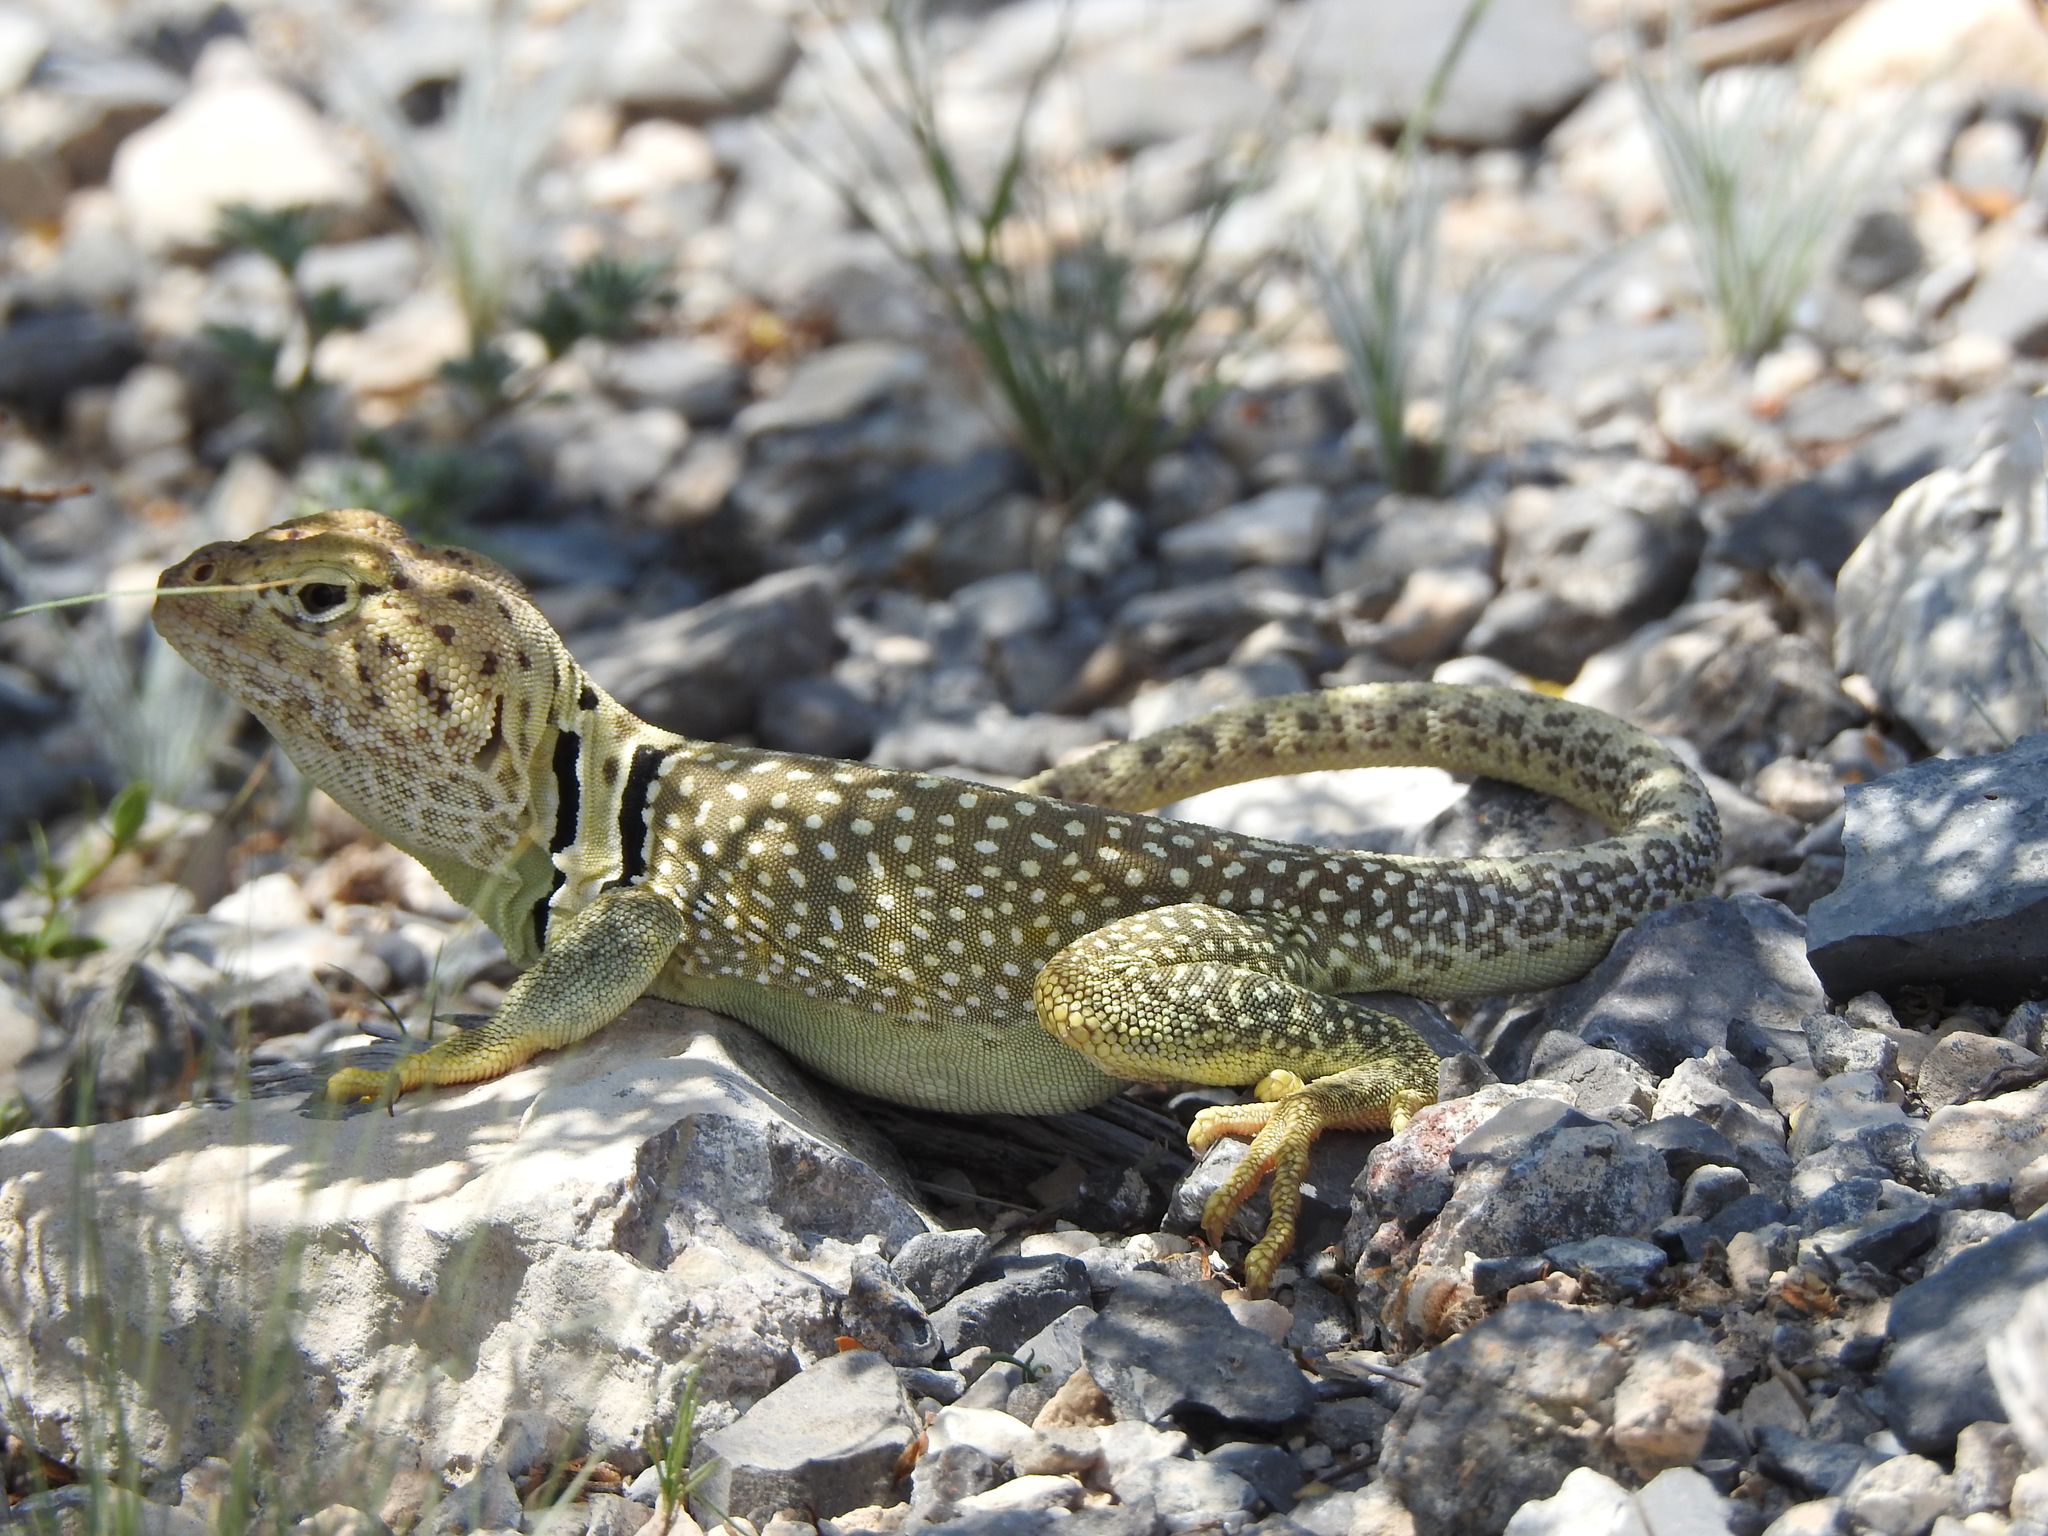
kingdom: Animalia
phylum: Chordata
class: Squamata
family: Crotaphytidae
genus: Crotaphytus
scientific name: Crotaphytus collaris
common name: Collared lizard
